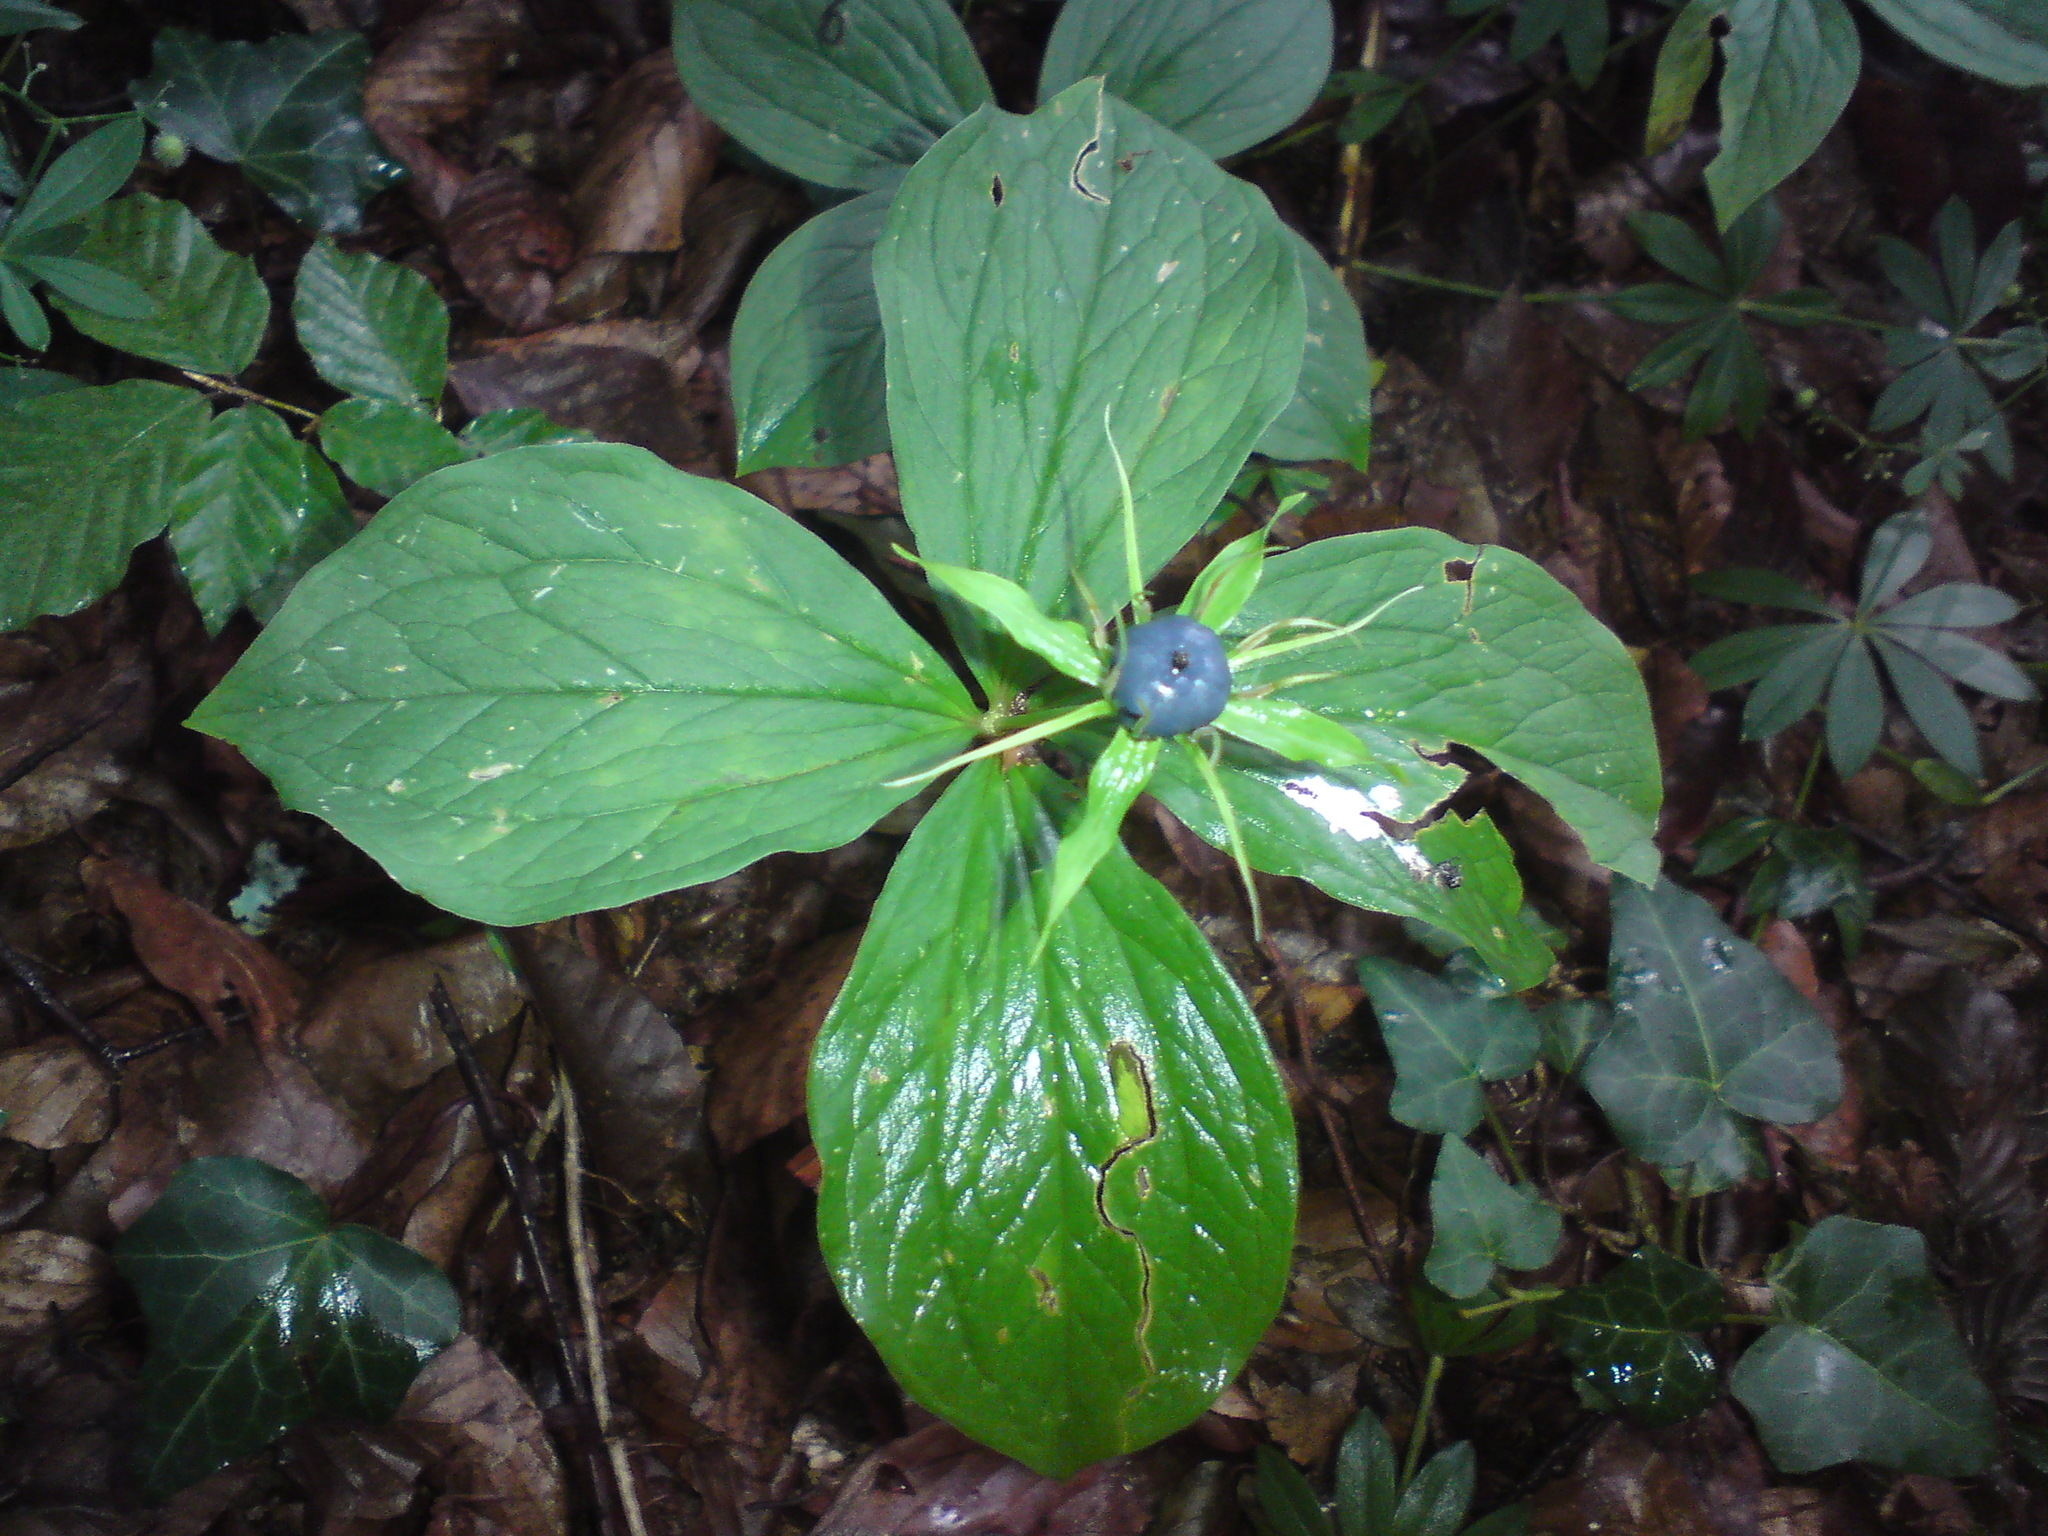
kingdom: Plantae
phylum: Tracheophyta
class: Liliopsida
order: Liliales
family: Melanthiaceae
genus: Paris
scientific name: Paris quadrifolia
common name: Herb-paris
